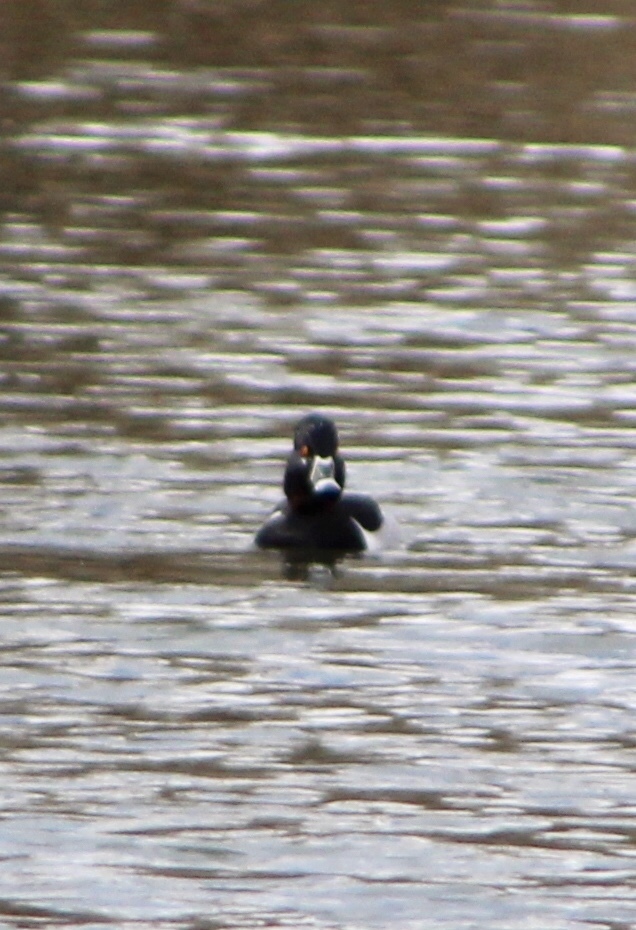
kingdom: Animalia
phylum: Chordata
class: Aves
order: Anseriformes
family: Anatidae
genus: Aythya
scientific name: Aythya collaris
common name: Ring-necked duck
